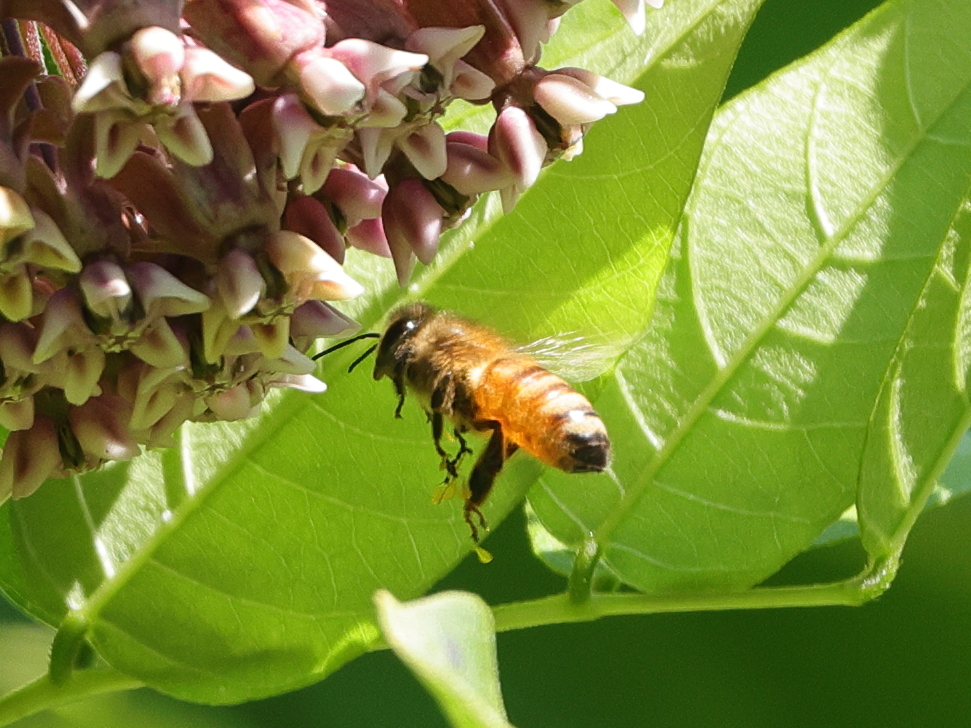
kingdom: Animalia
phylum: Arthropoda
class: Insecta
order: Hymenoptera
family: Apidae
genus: Apis
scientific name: Apis mellifera
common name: Honey bee
